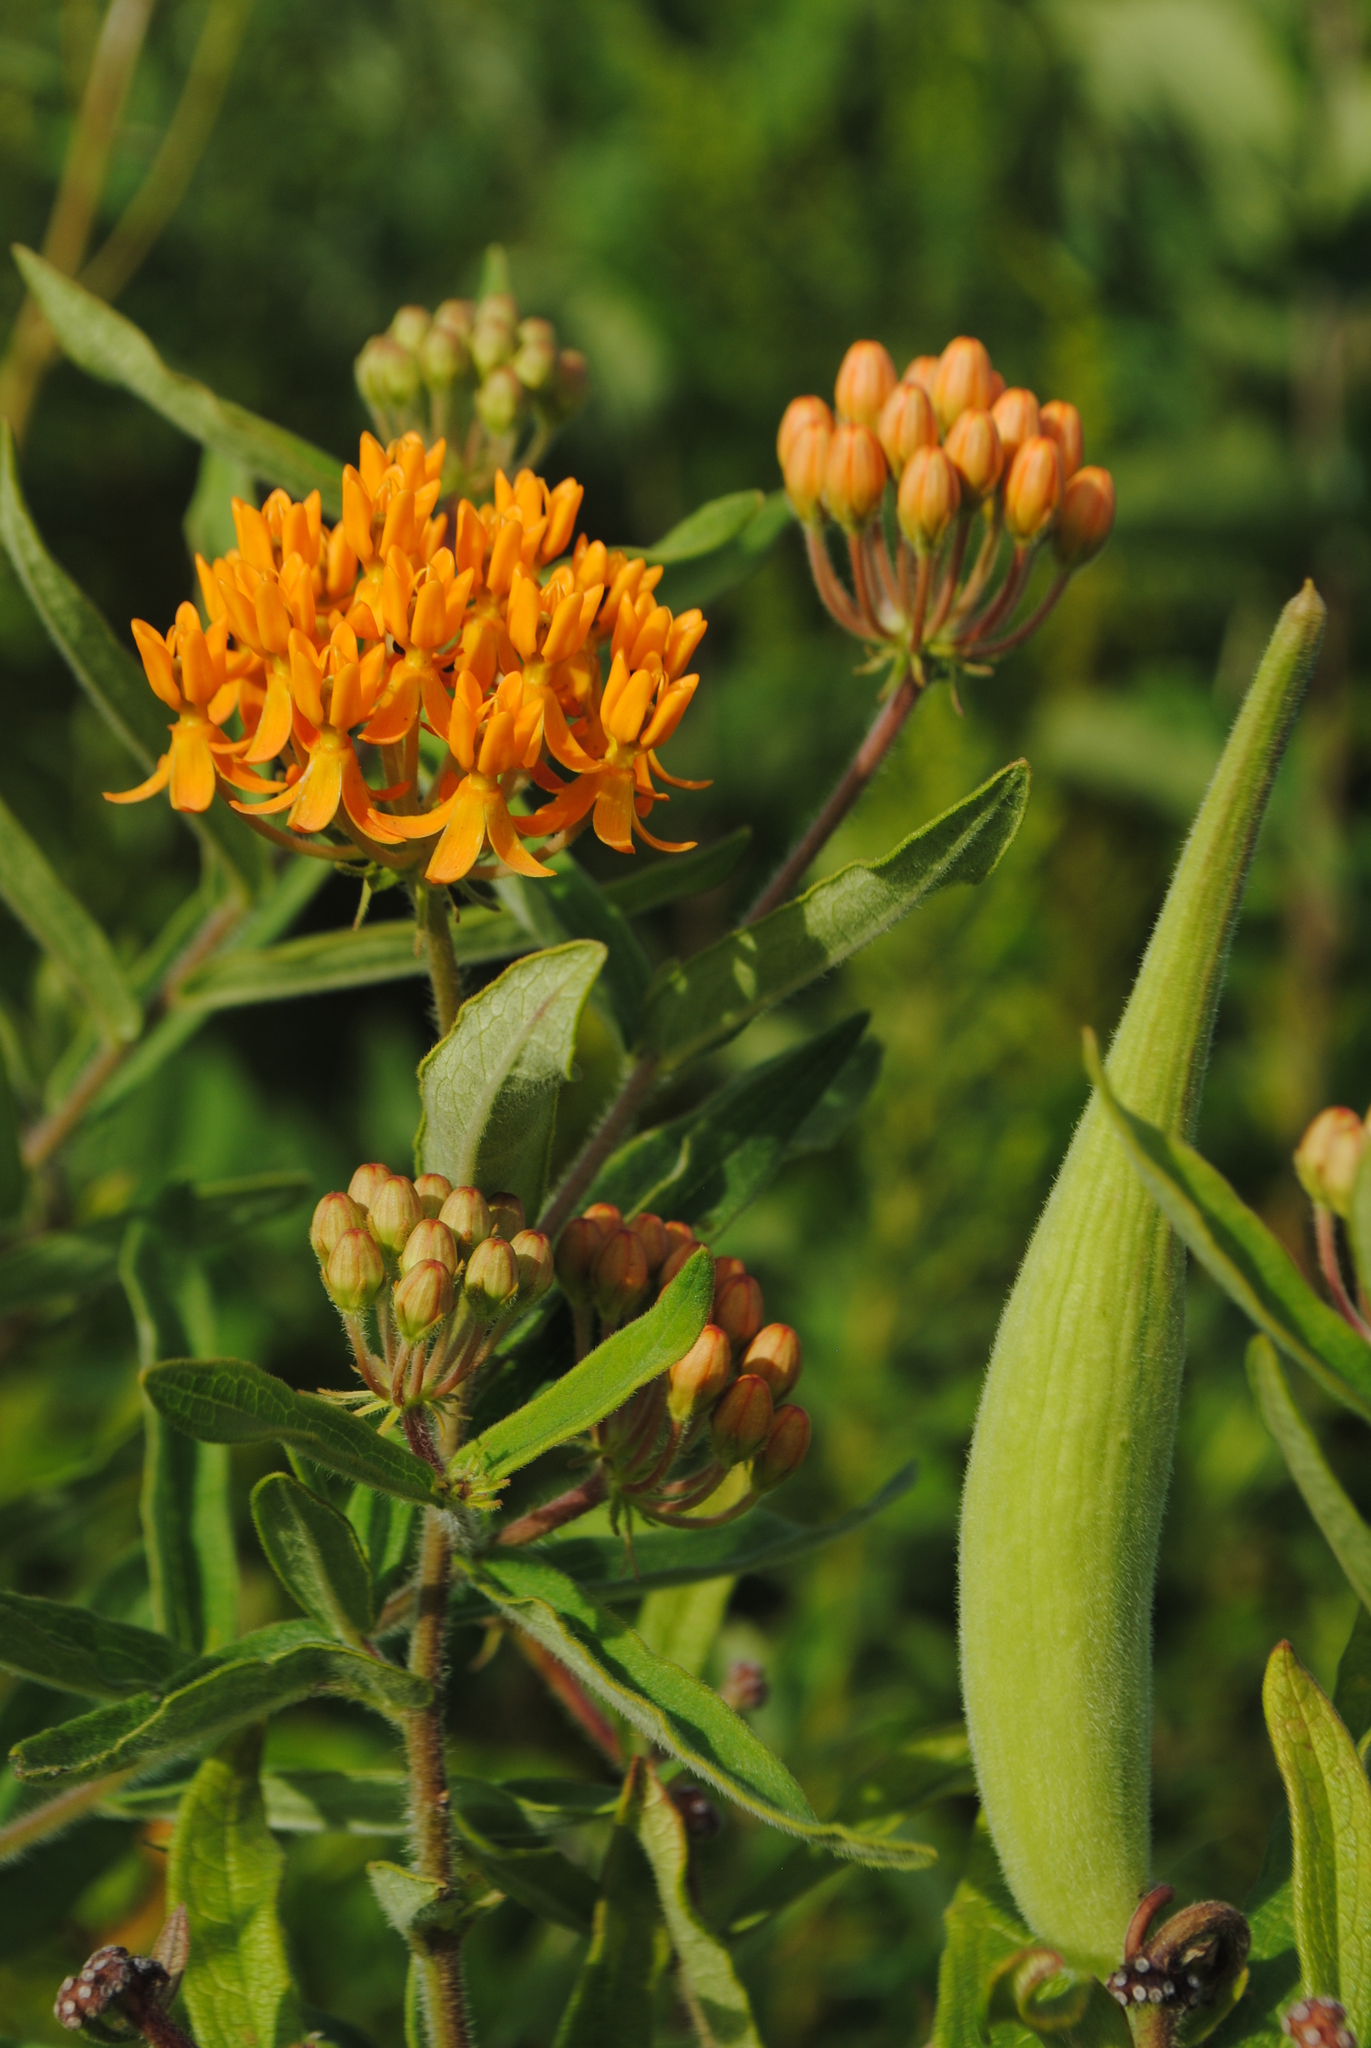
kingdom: Plantae
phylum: Tracheophyta
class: Magnoliopsida
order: Gentianales
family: Apocynaceae
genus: Asclepias
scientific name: Asclepias tuberosa
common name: Butterfly milkweed
